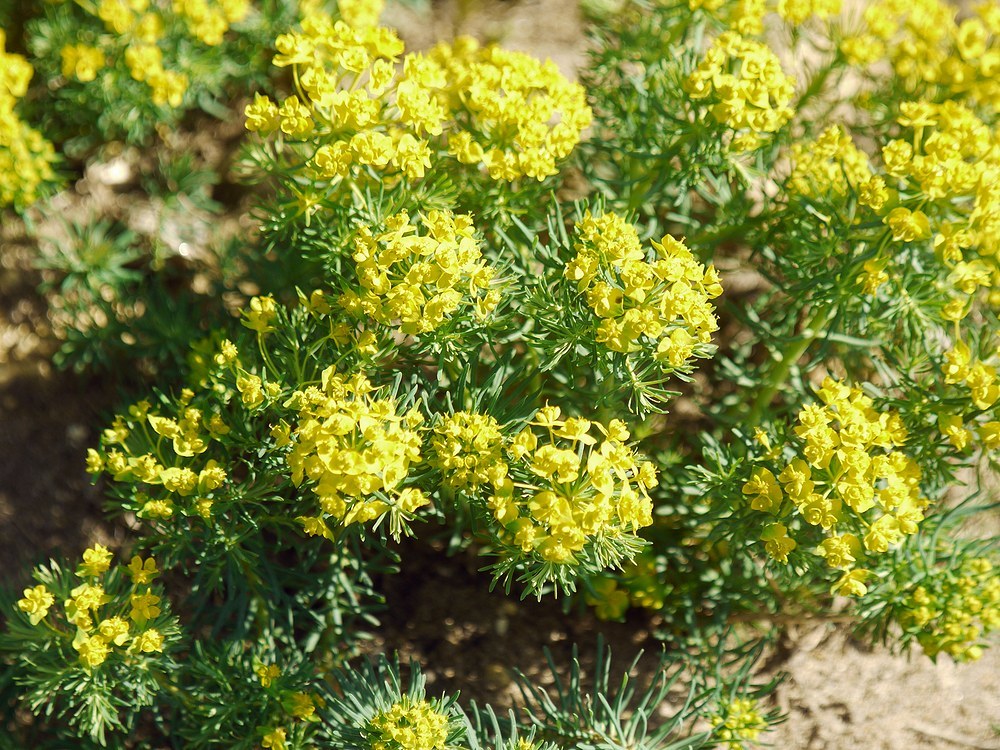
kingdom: Plantae
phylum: Tracheophyta
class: Magnoliopsida
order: Malpighiales
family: Euphorbiaceae
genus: Euphorbia
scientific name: Euphorbia cyparissias
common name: Cypress spurge
